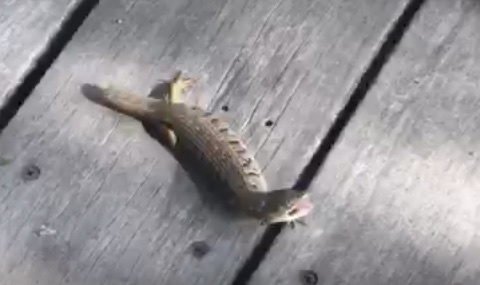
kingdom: Animalia
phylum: Chordata
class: Squamata
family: Anguidae
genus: Elgaria
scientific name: Elgaria multicarinata
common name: Southern alligator lizard
